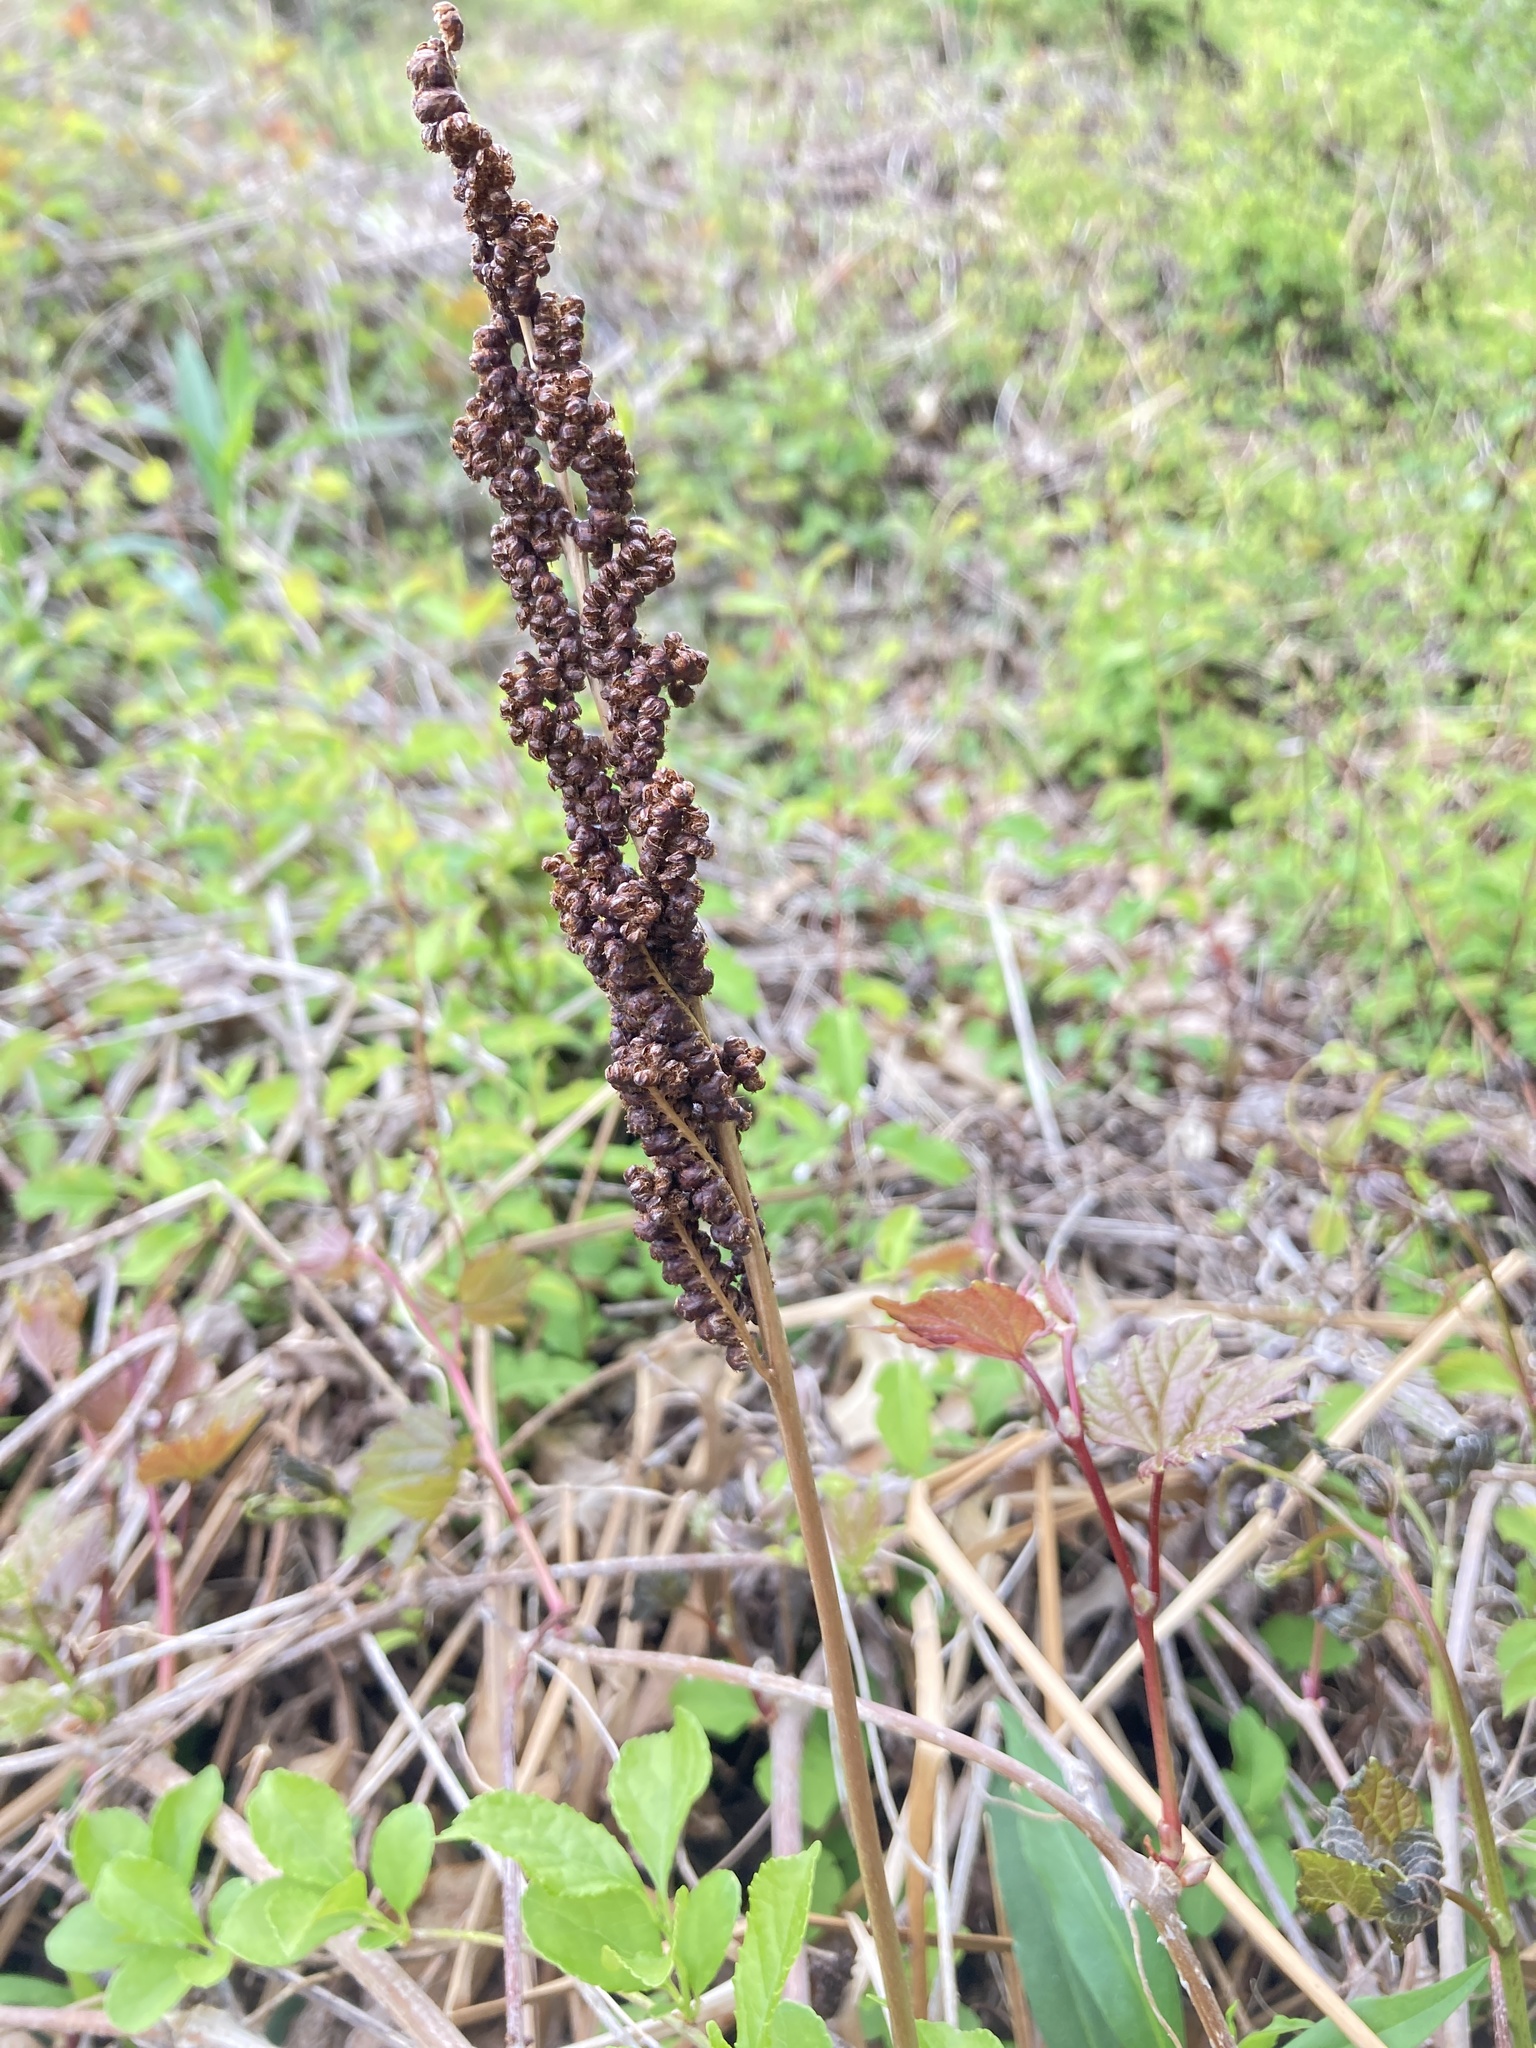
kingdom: Plantae
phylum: Tracheophyta
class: Polypodiopsida
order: Polypodiales
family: Onocleaceae
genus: Onoclea
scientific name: Onoclea sensibilis
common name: Sensitive fern
